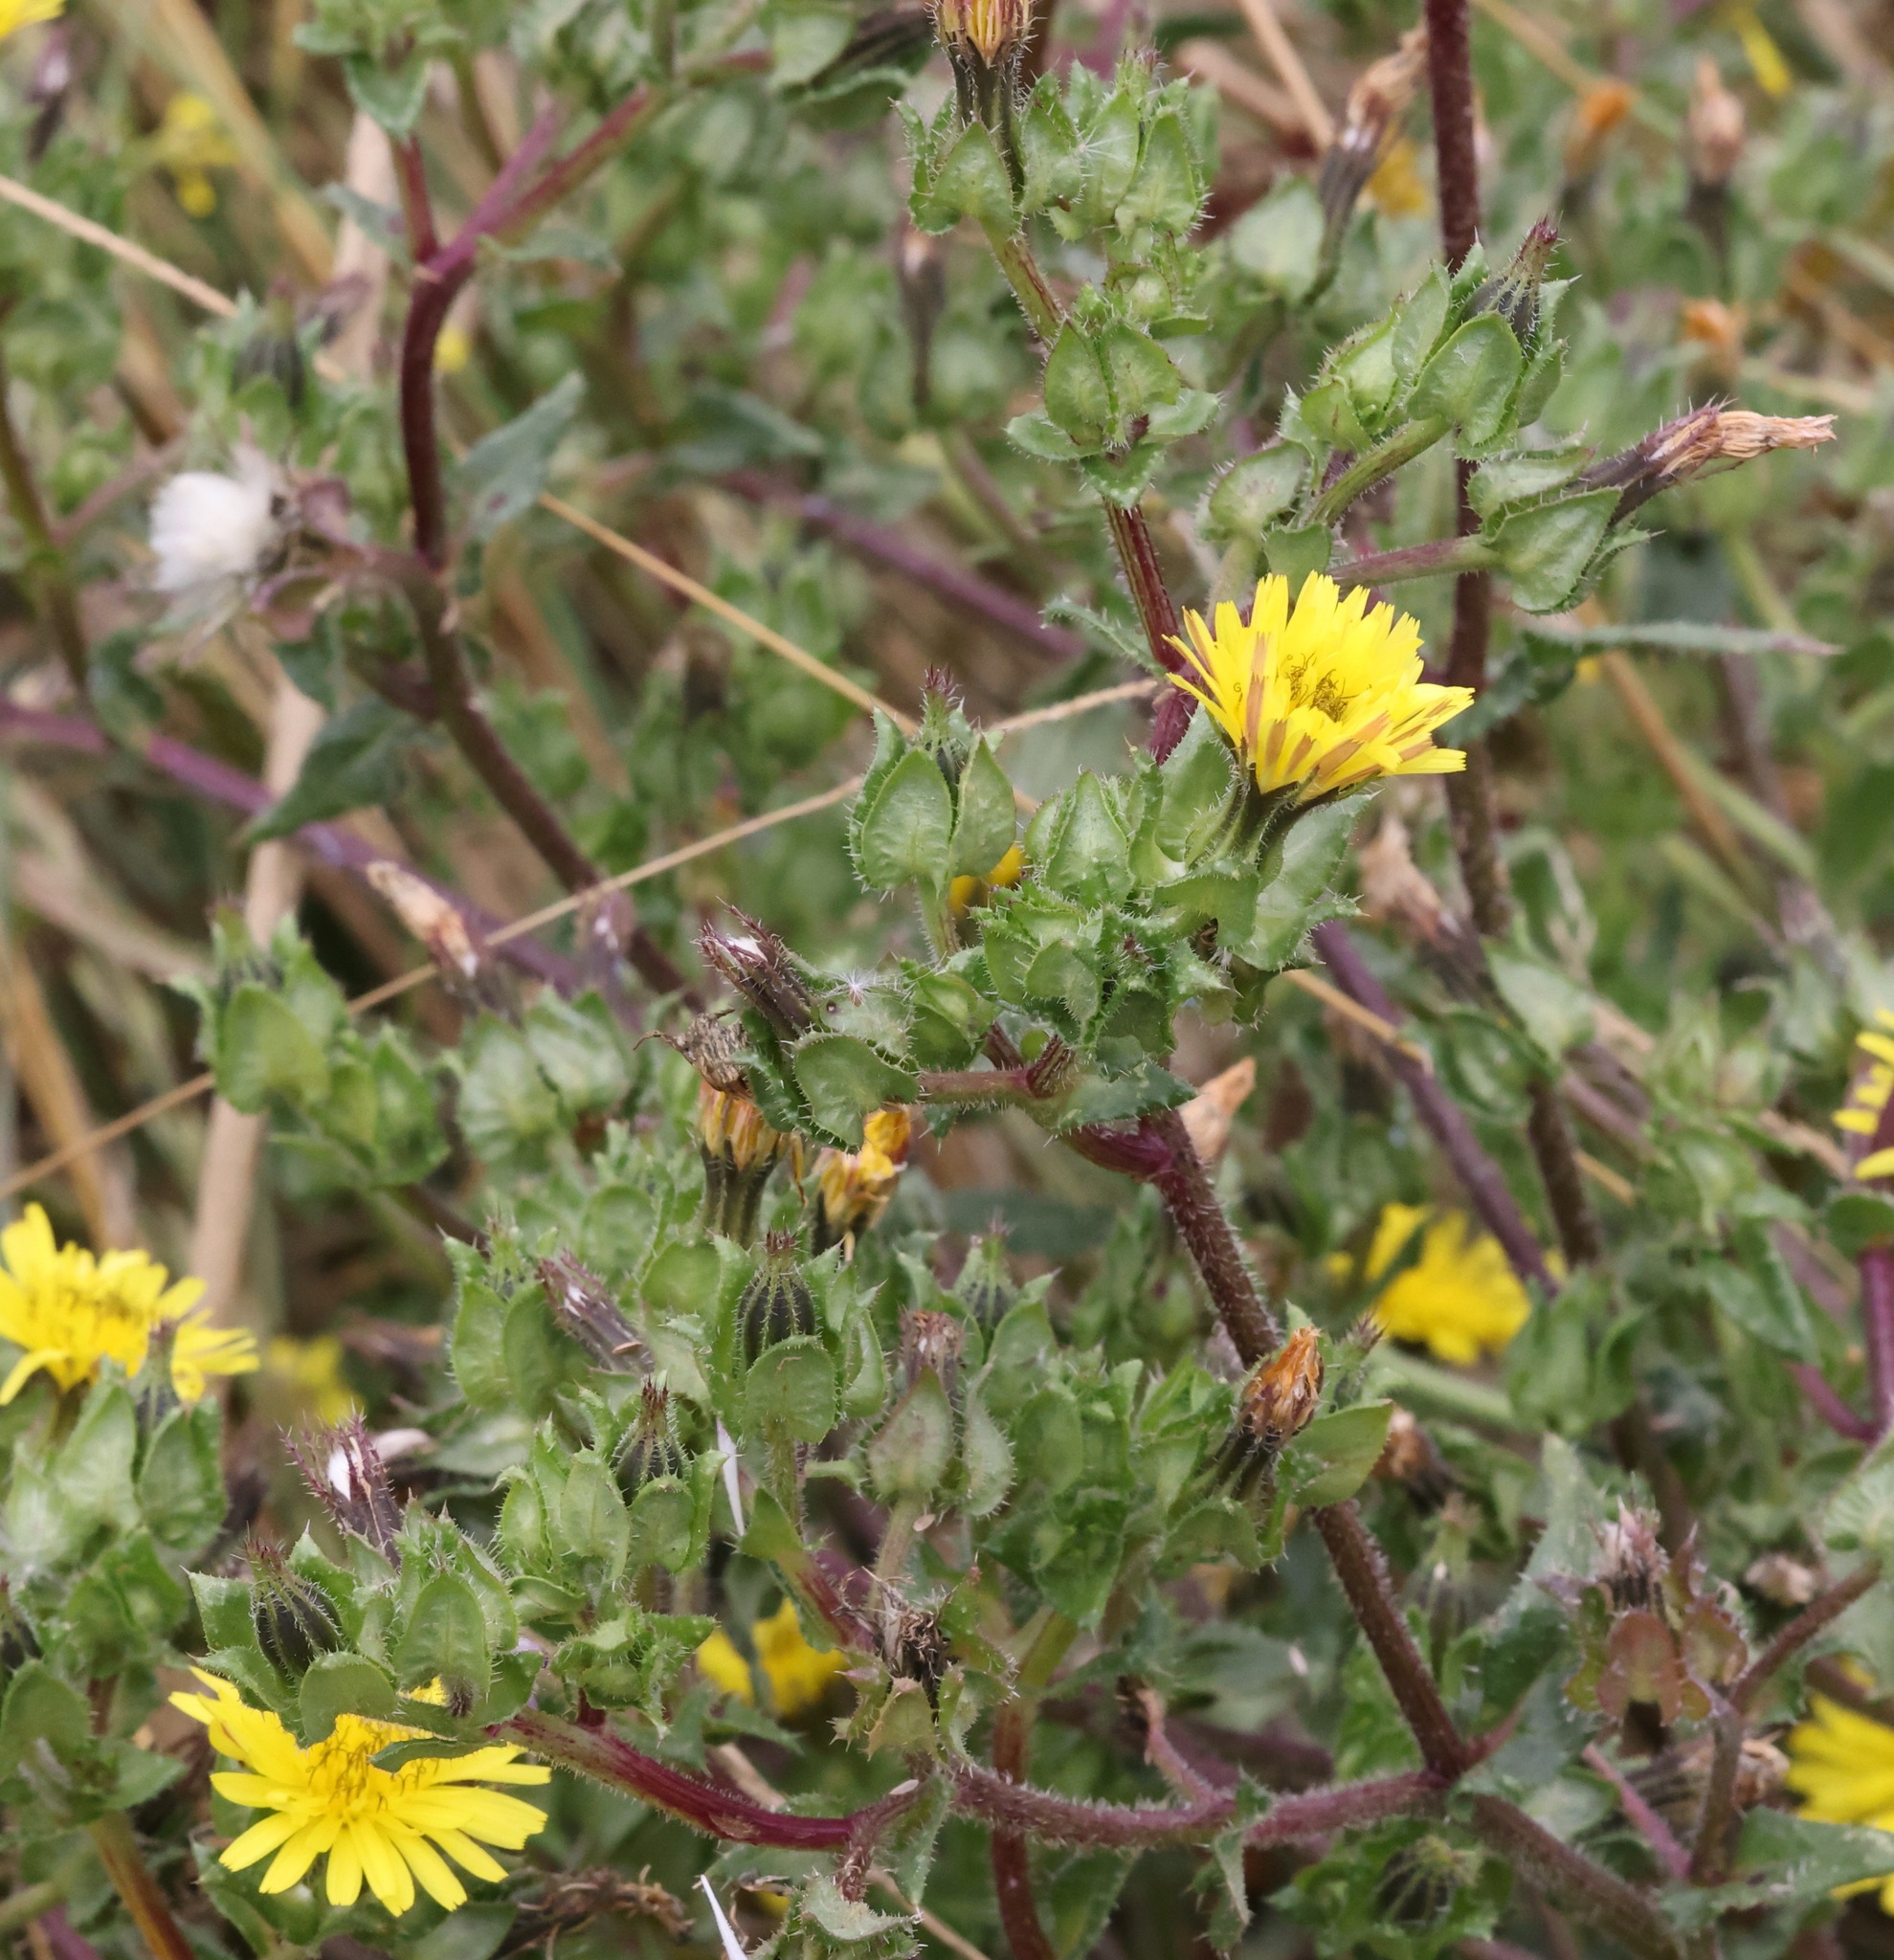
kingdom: Plantae
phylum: Tracheophyta
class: Magnoliopsida
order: Asterales
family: Asteraceae
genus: Helminthotheca
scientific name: Helminthotheca echioides
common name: Ox-tongue
